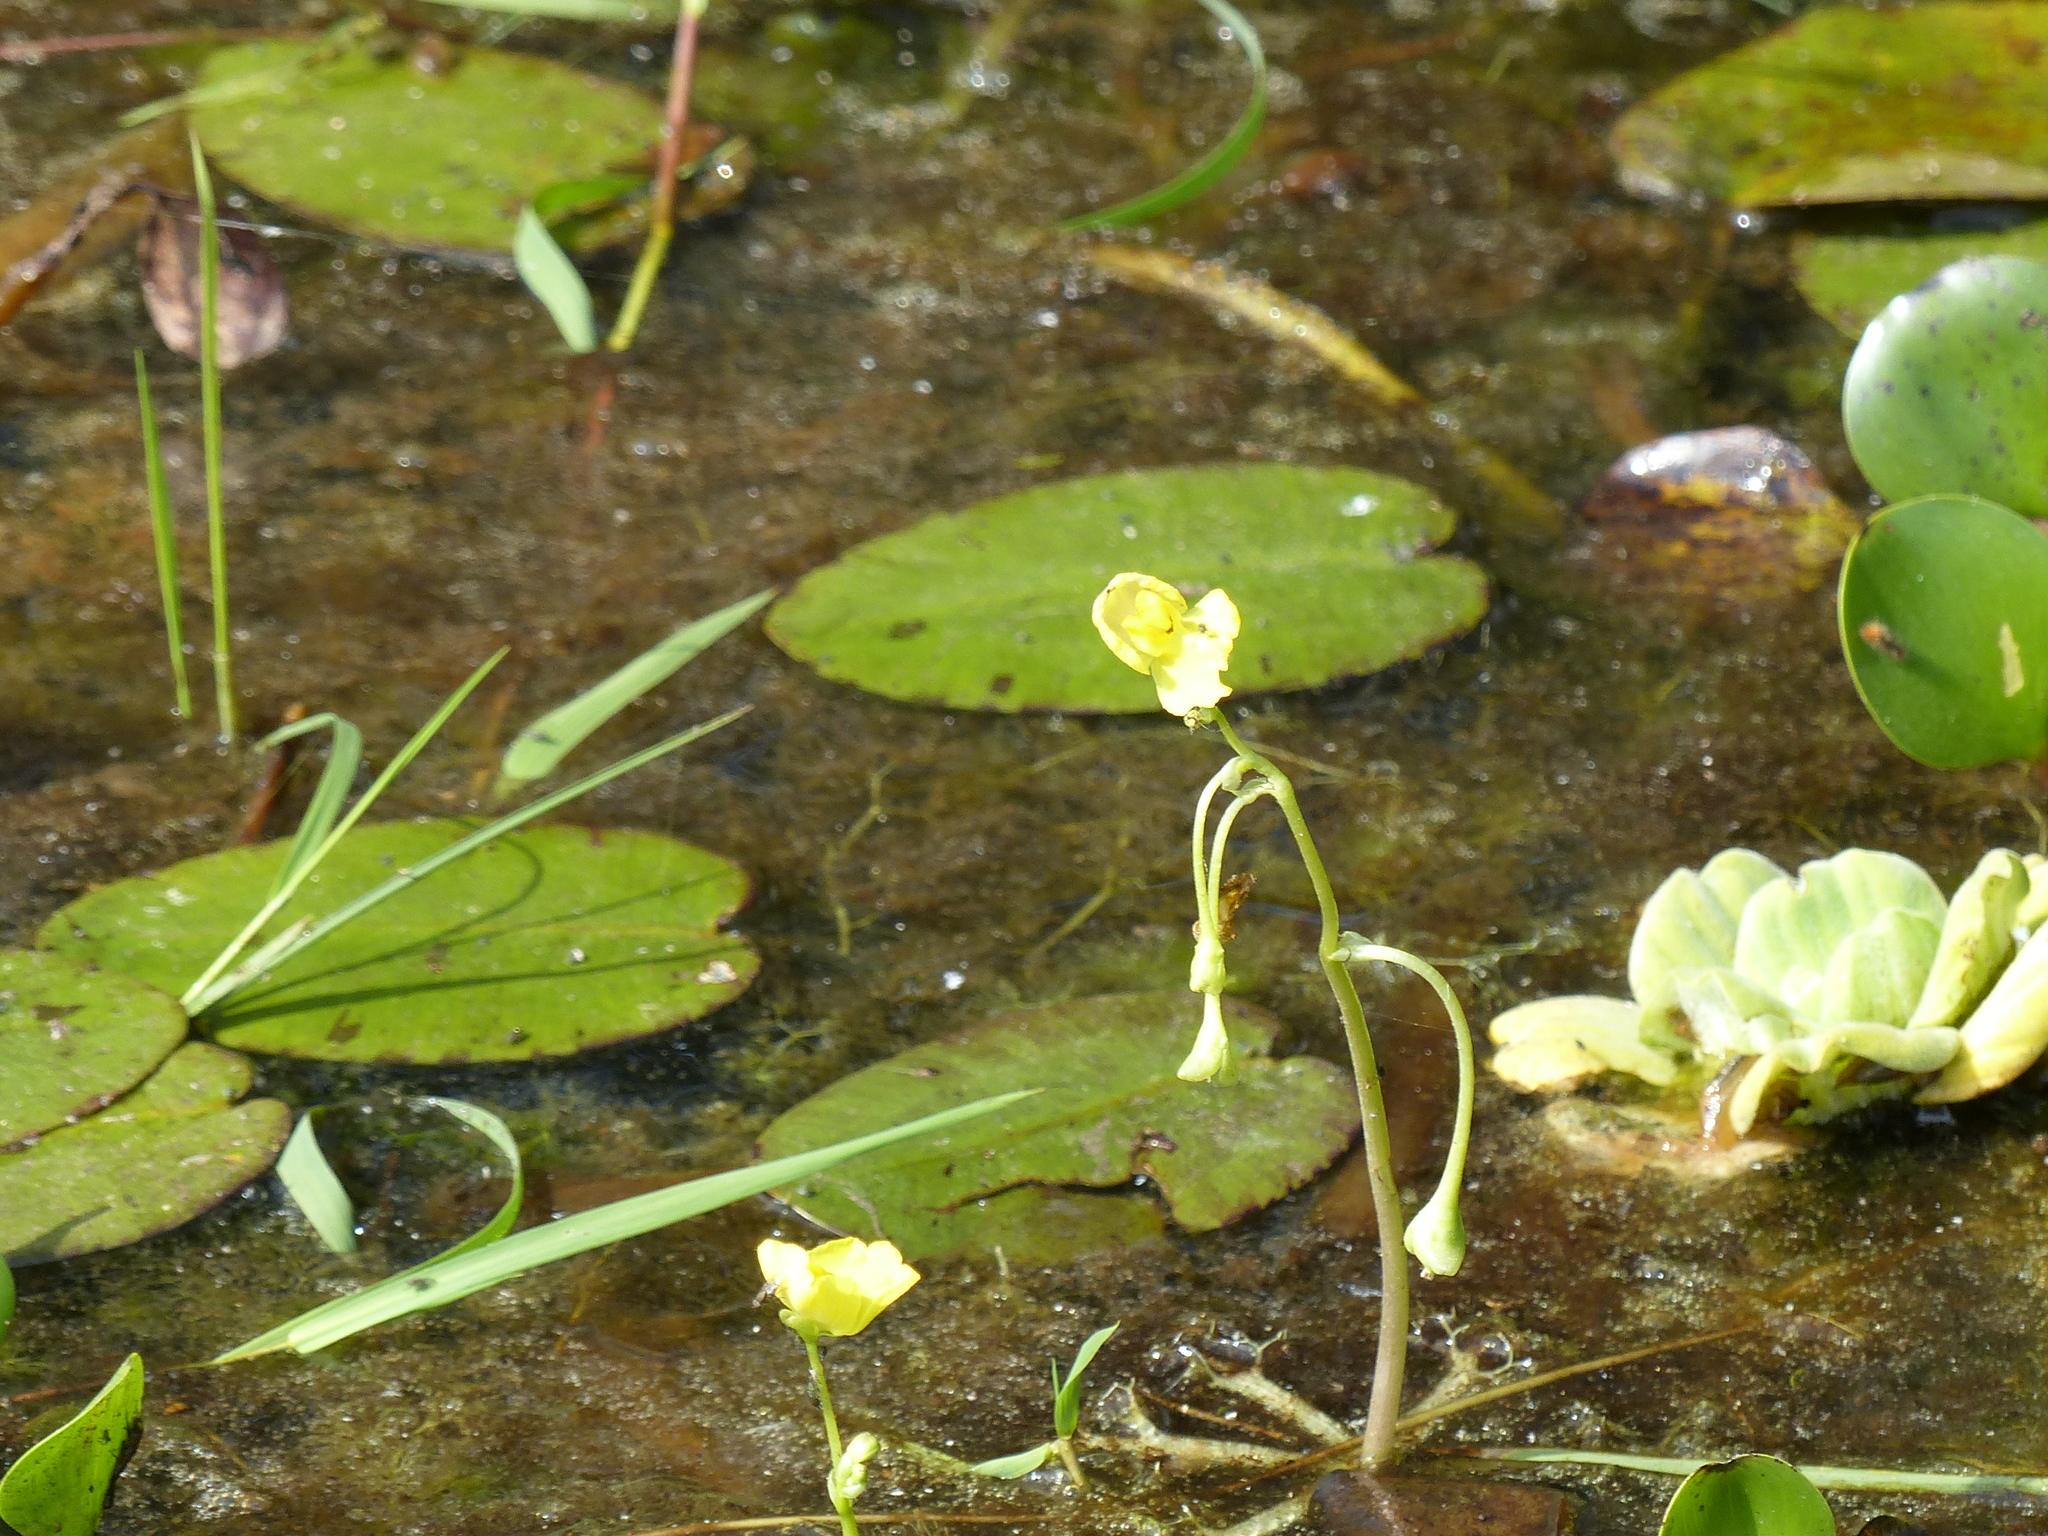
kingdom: Plantae
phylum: Tracheophyta
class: Magnoliopsida
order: Lamiales
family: Lentibulariaceae
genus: Utricularia
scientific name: Utricularia platensis
